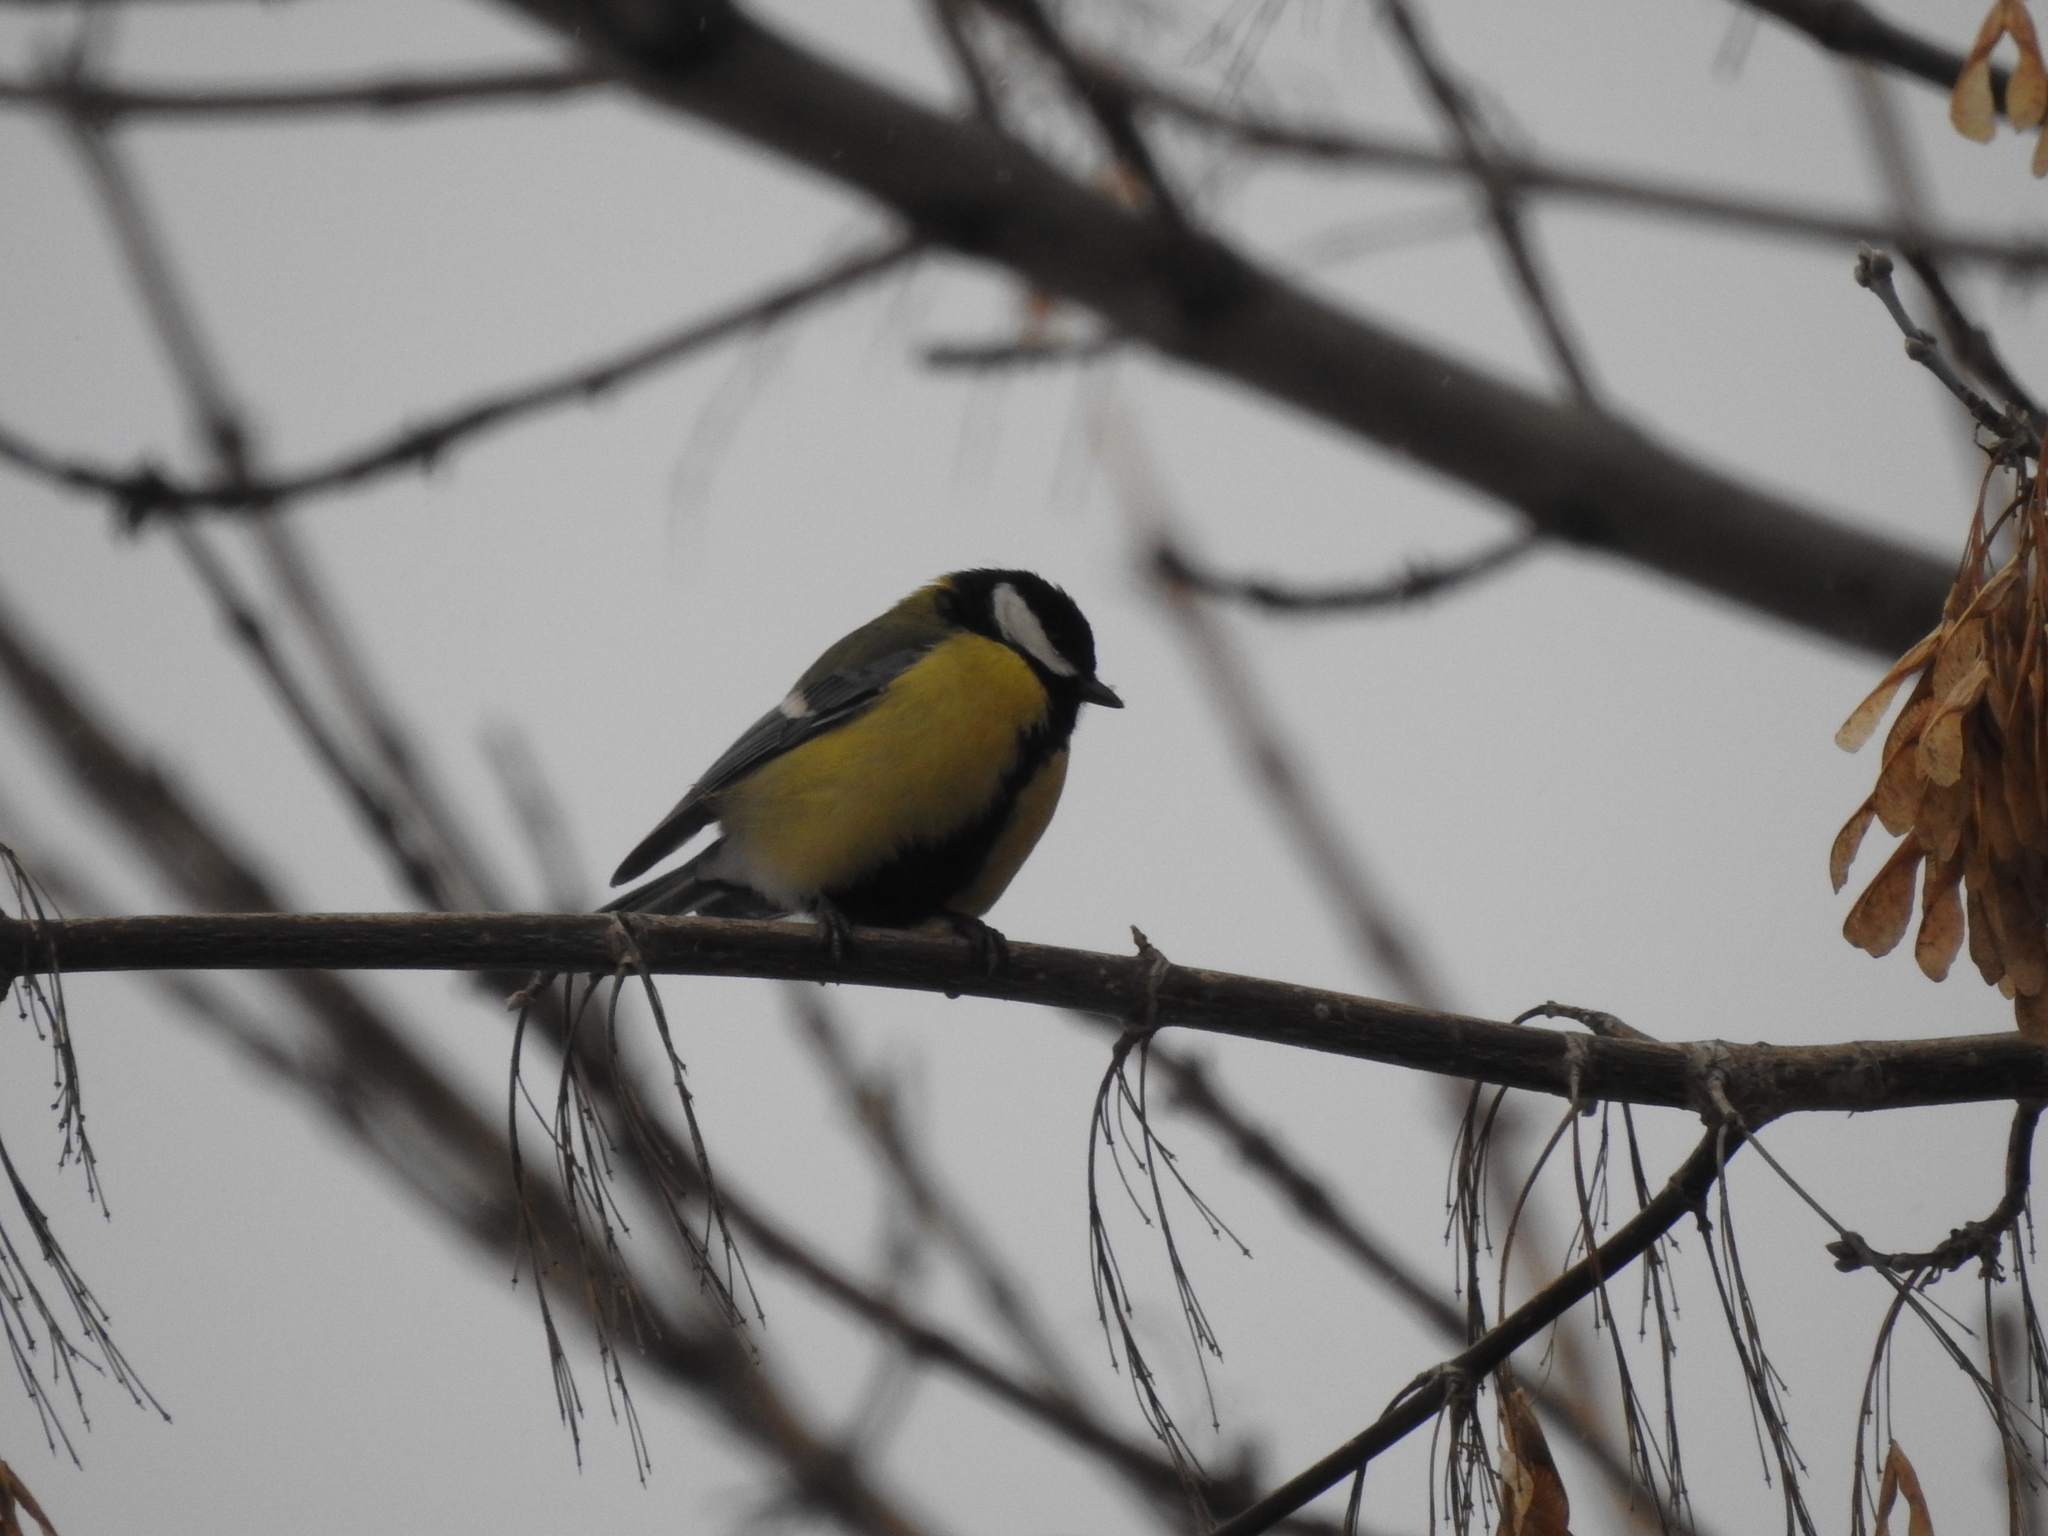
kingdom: Animalia
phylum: Chordata
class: Aves
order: Passeriformes
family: Paridae
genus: Parus
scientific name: Parus major
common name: Great tit
